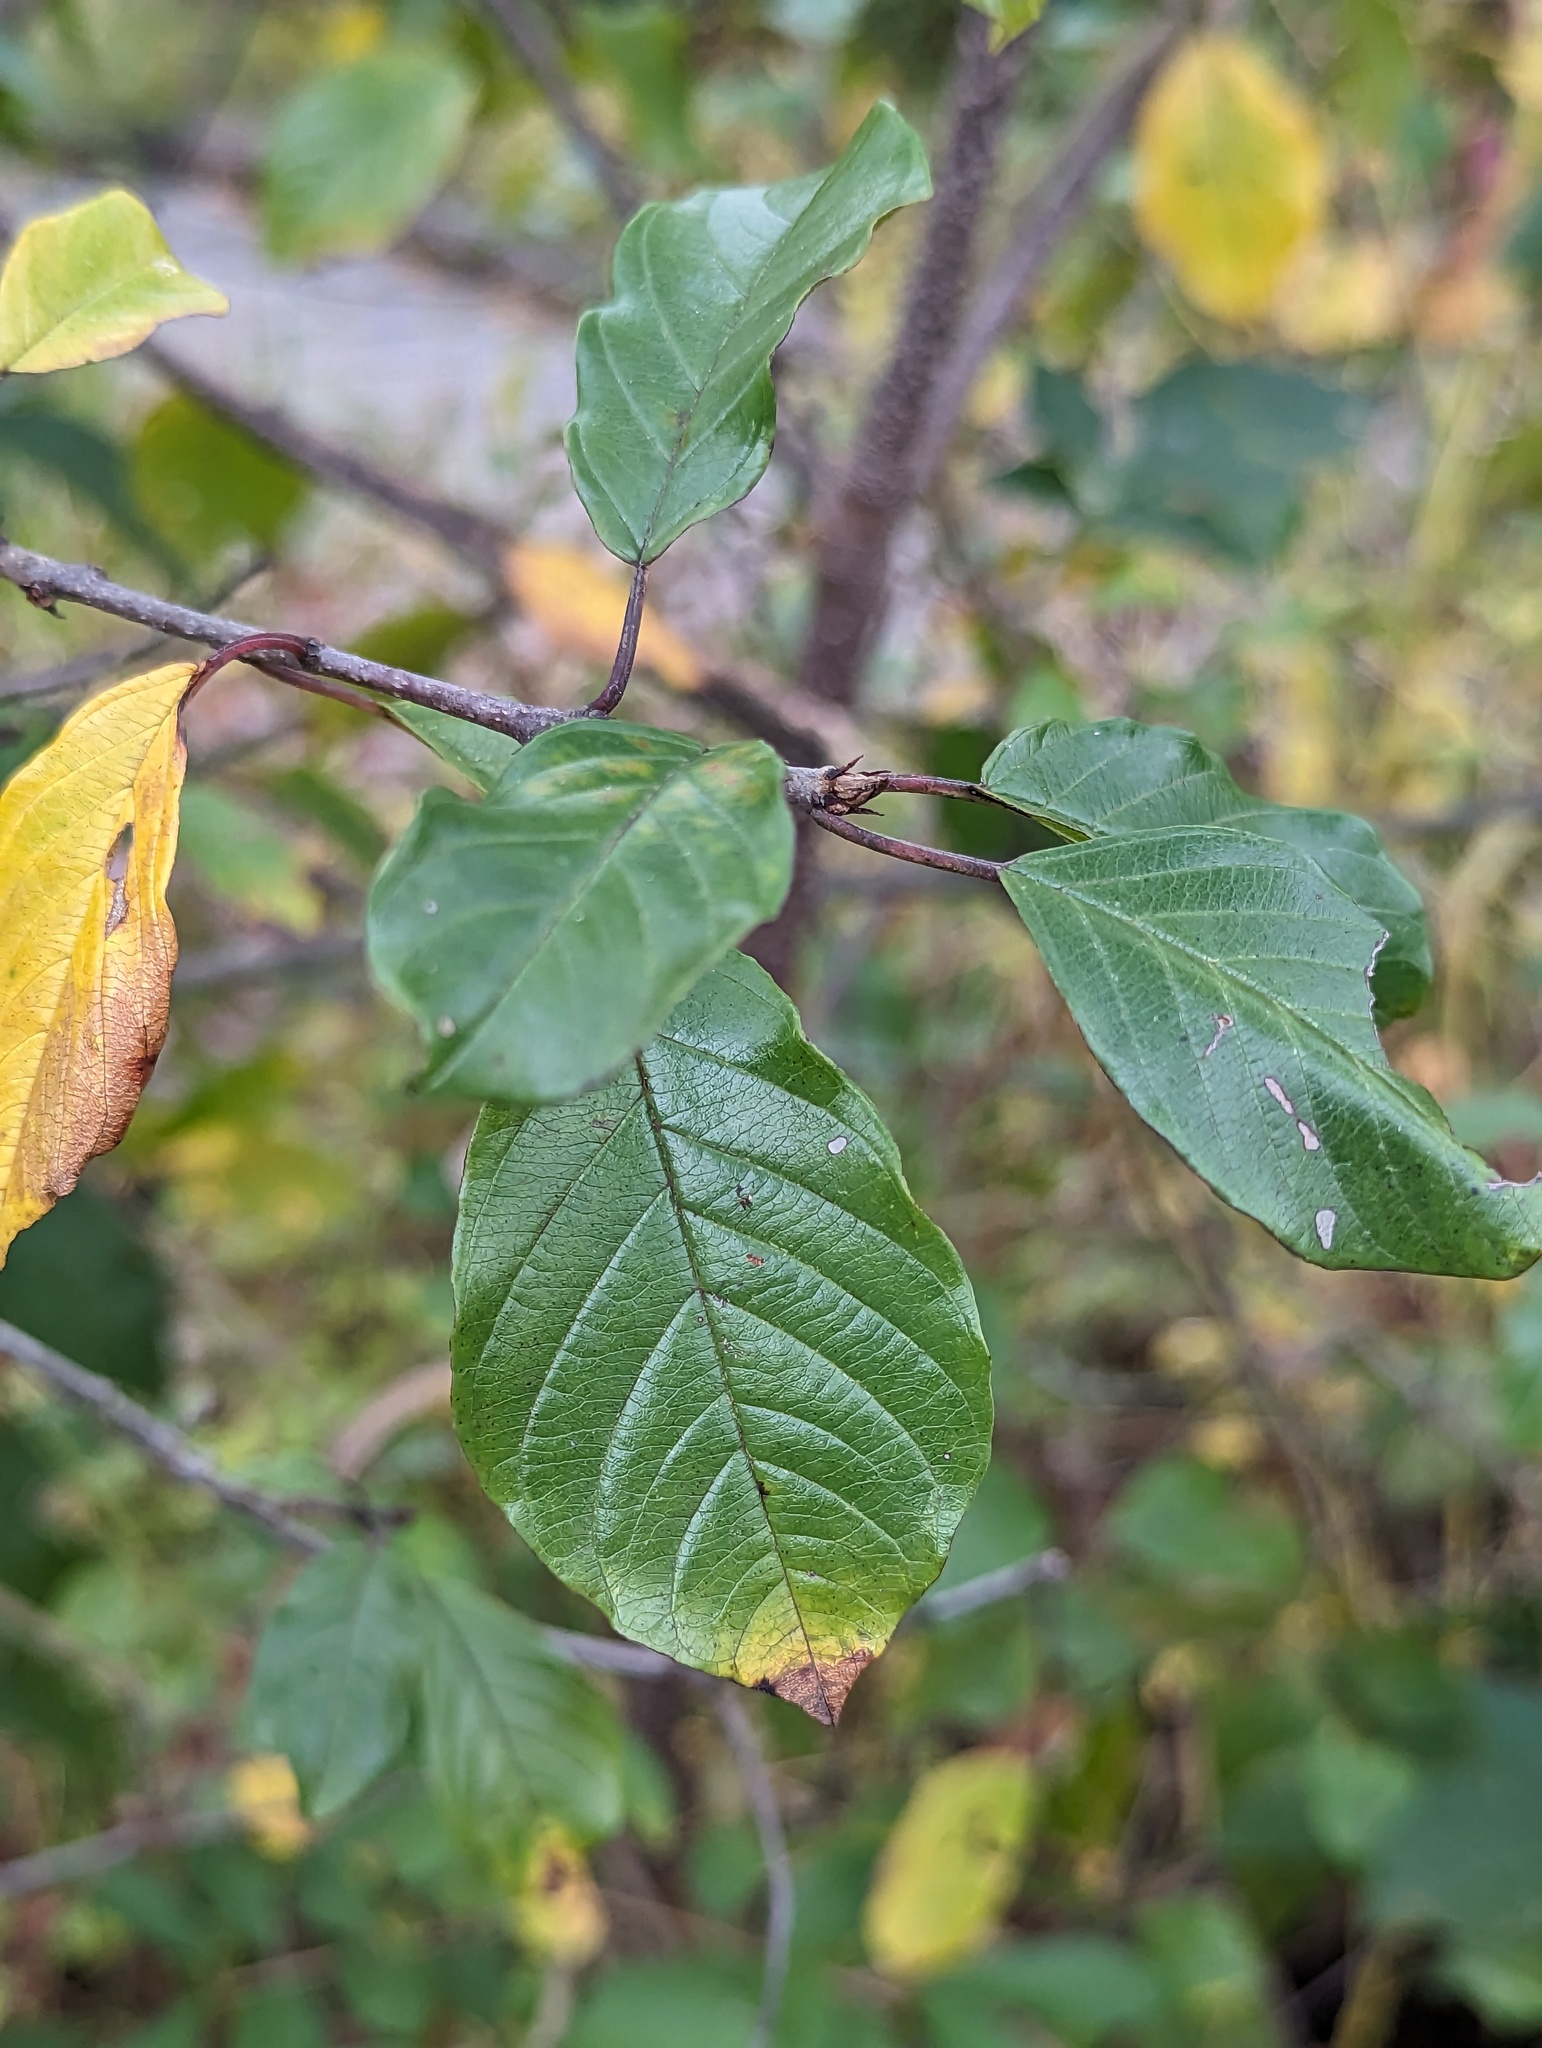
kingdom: Plantae
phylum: Tracheophyta
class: Magnoliopsida
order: Rosales
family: Rhamnaceae
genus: Frangula
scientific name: Frangula alnus
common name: Alder buckthorn
